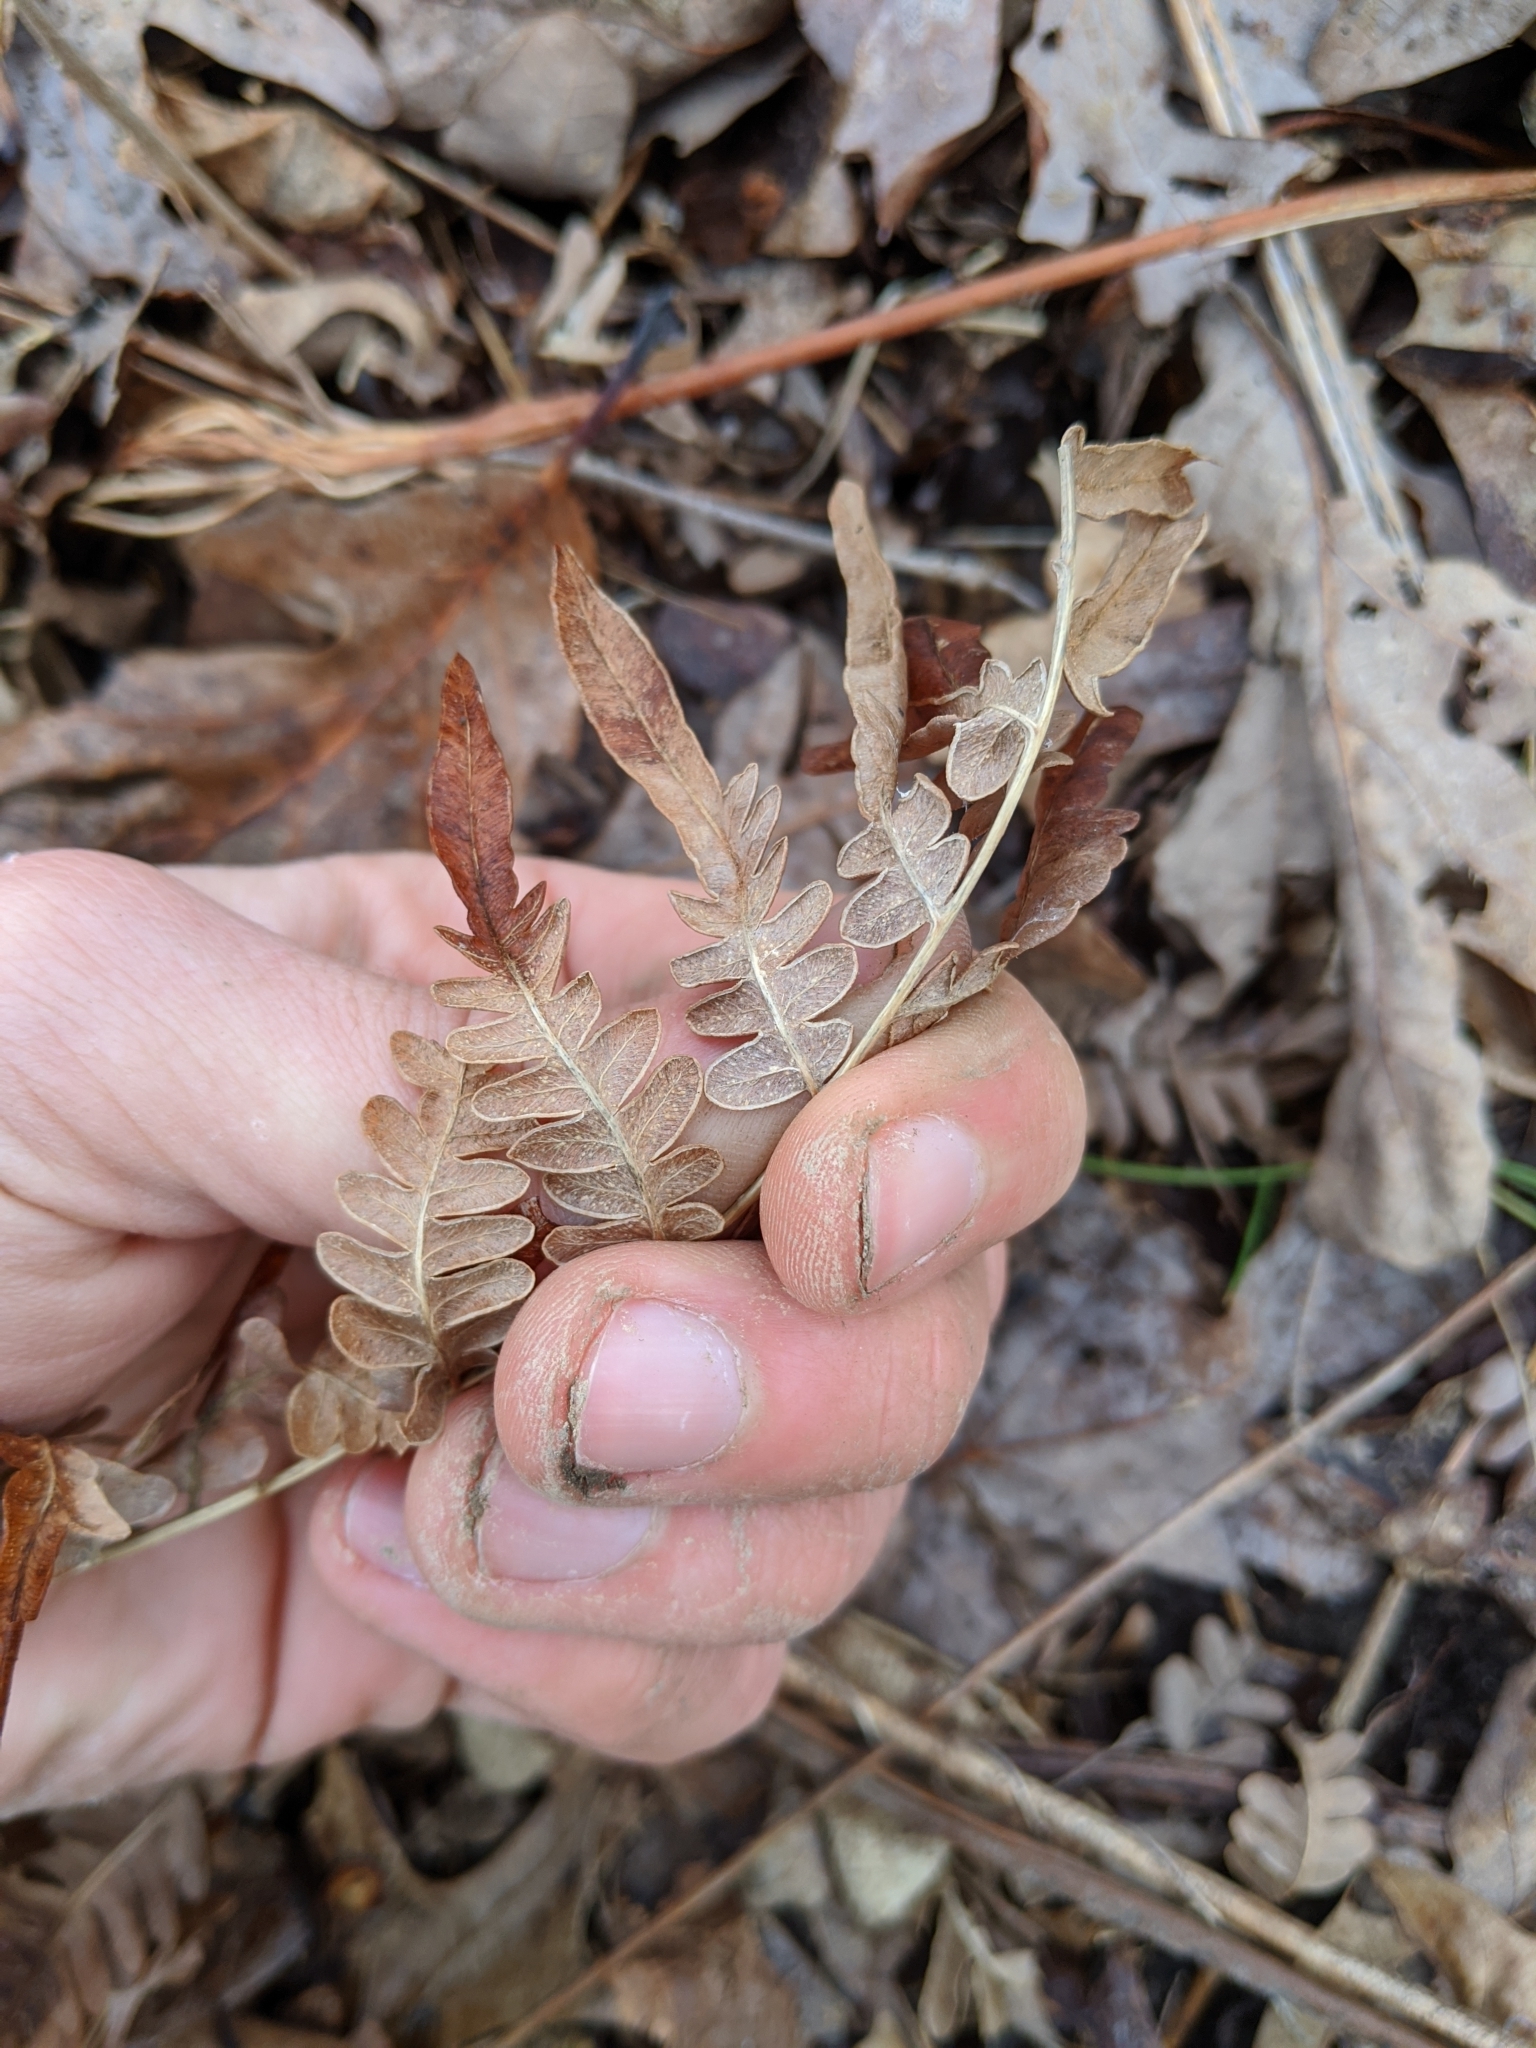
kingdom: Plantae
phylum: Tracheophyta
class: Polypodiopsida
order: Polypodiales
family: Dennstaedtiaceae
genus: Pteridium
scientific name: Pteridium aquilinum
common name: Bracken
